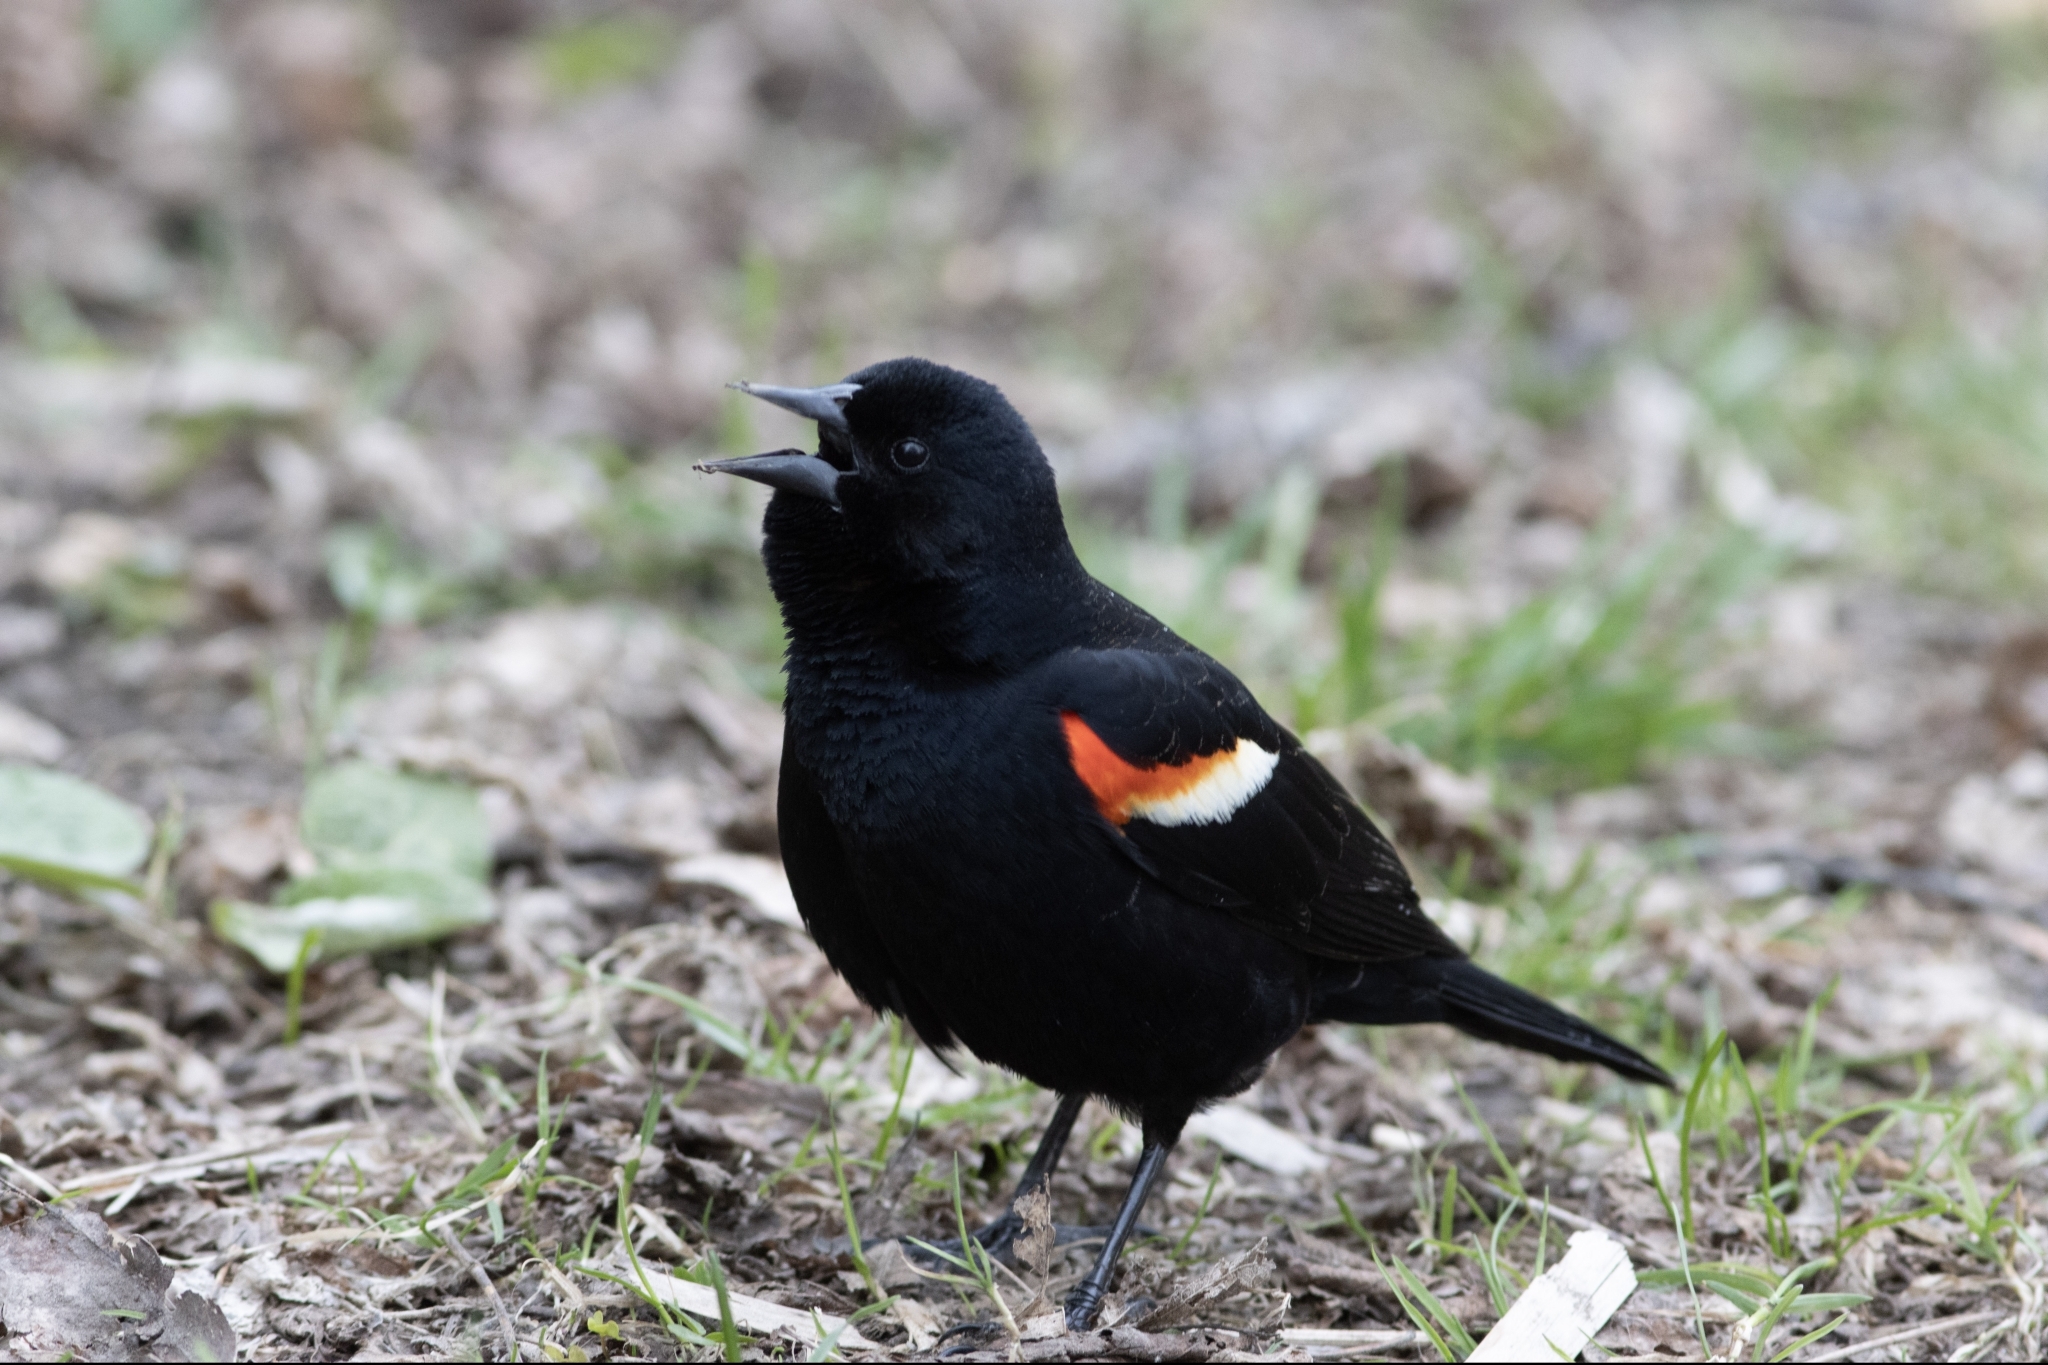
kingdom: Animalia
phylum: Chordata
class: Aves
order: Passeriformes
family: Icteridae
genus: Agelaius
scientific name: Agelaius phoeniceus
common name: Red-winged blackbird
